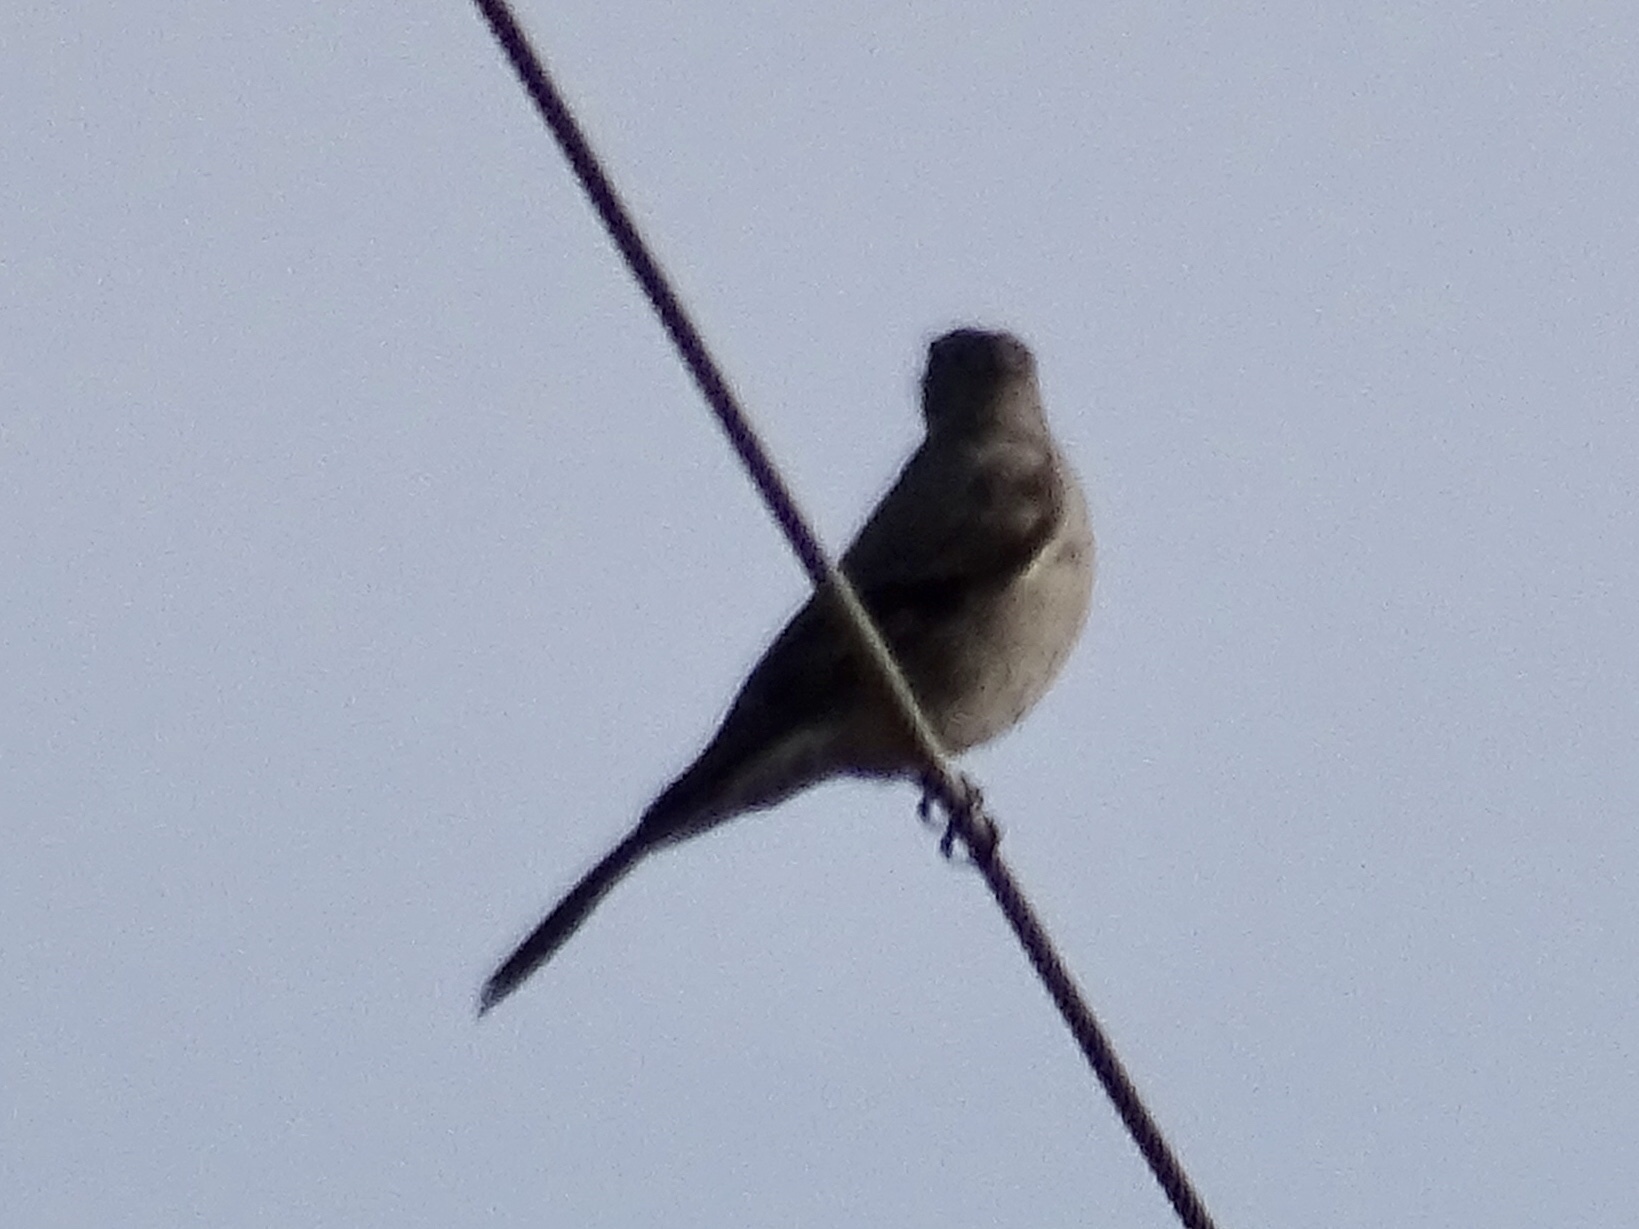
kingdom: Animalia
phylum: Chordata
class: Aves
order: Passeriformes
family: Turdidae
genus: Myadestes
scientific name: Myadestes townsendi
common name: Townsend's solitaire
